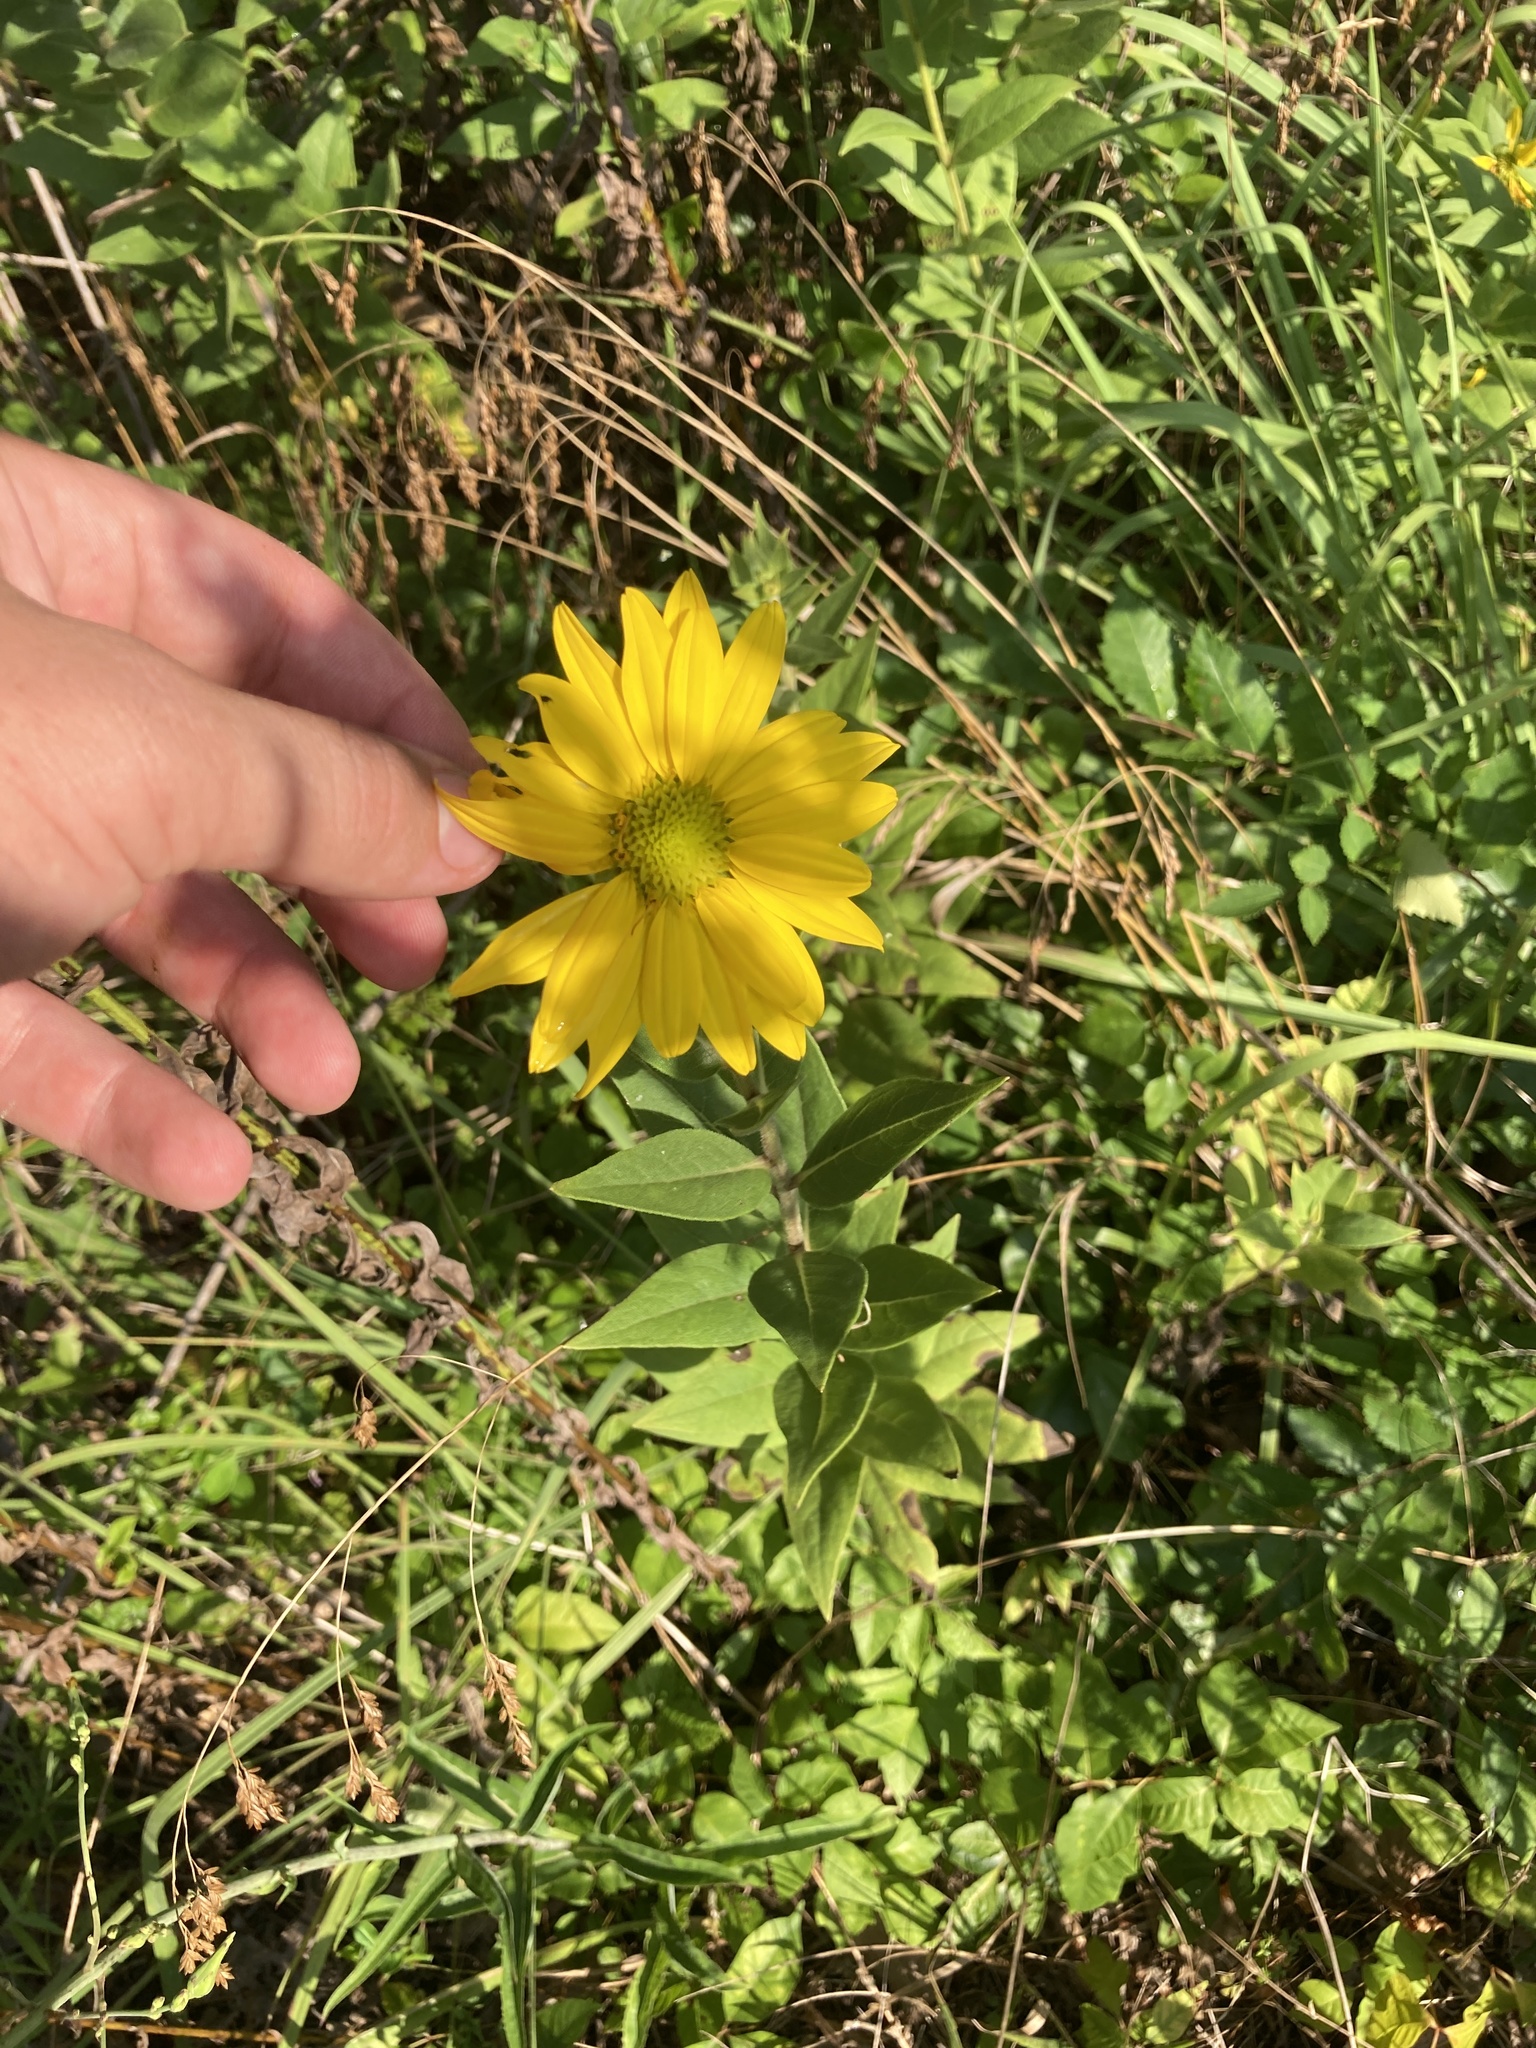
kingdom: Plantae
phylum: Tracheophyta
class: Magnoliopsida
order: Asterales
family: Asteraceae
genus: Silphium
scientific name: Silphium radula
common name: Roughleaf rosinweed
